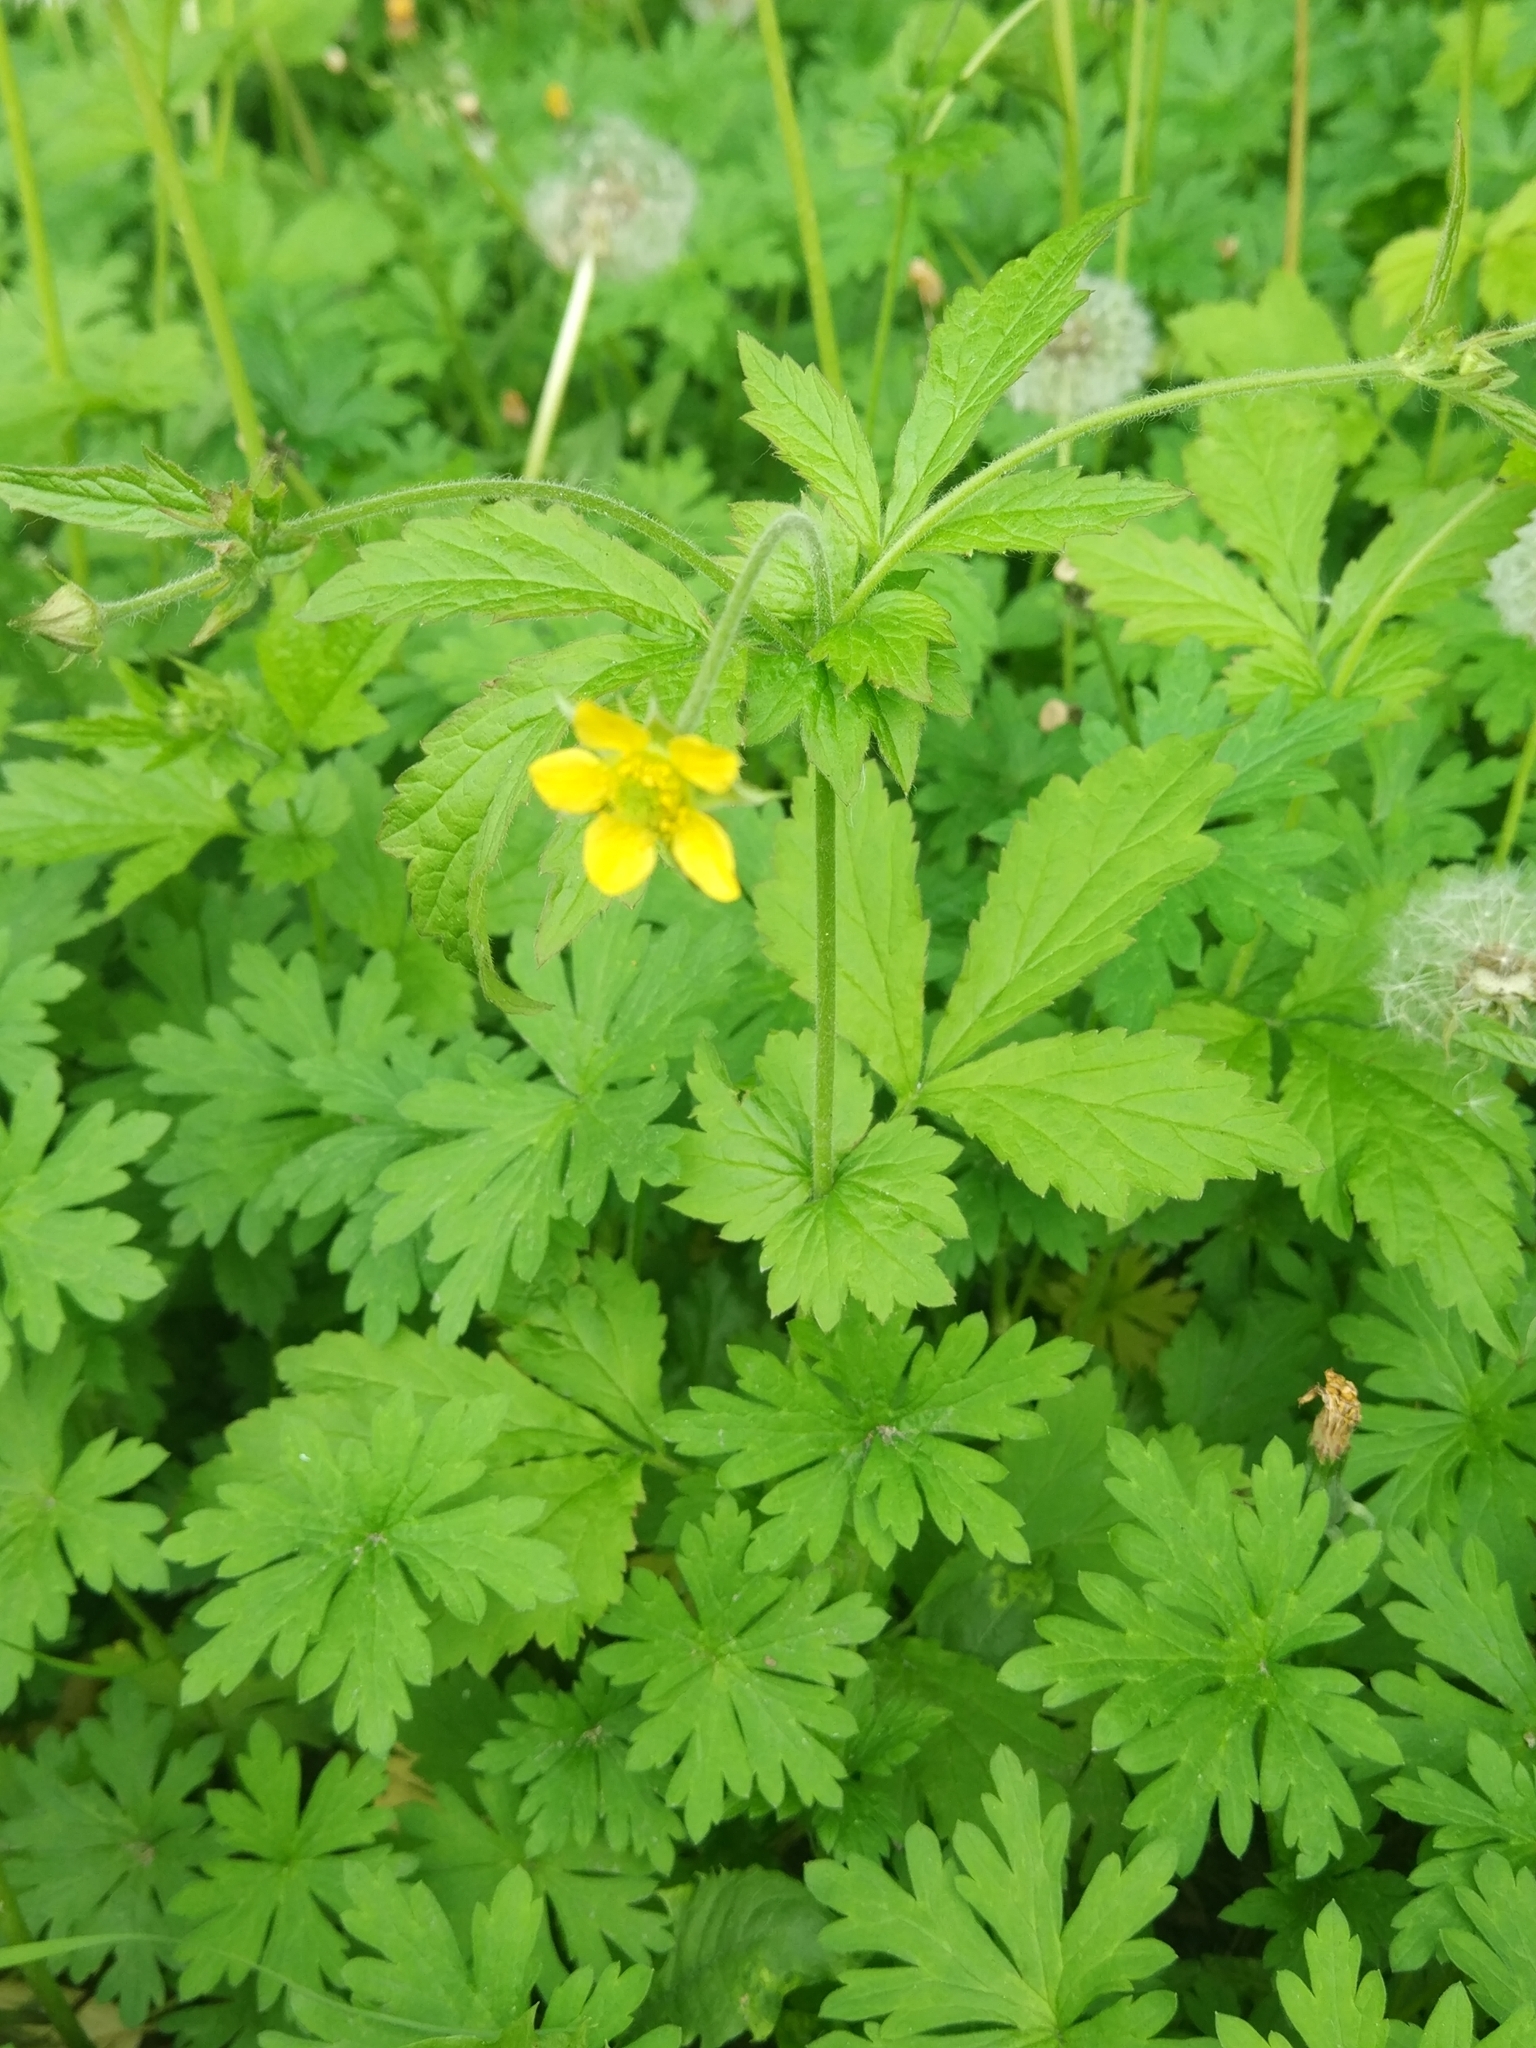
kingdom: Plantae
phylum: Tracheophyta
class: Magnoliopsida
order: Rosales
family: Rosaceae
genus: Geum
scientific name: Geum urbanum
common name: Wood avens
